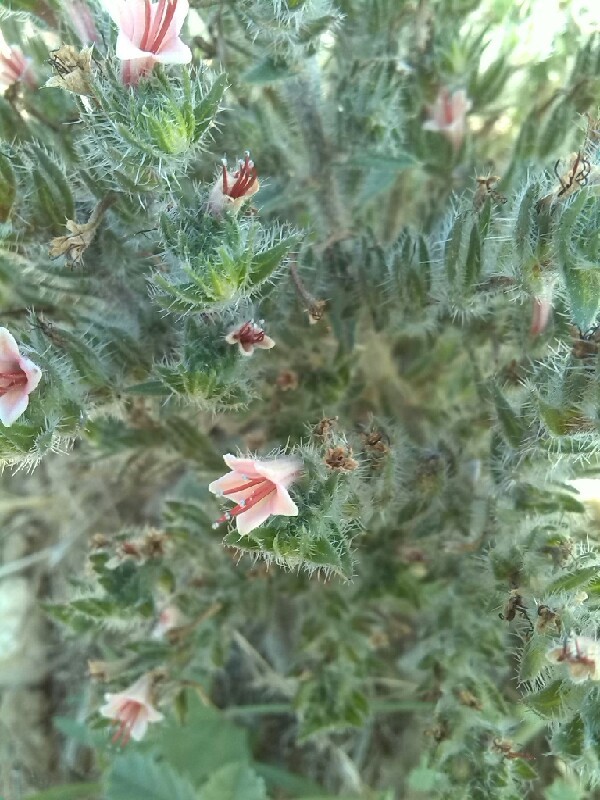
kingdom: Plantae
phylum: Tracheophyta
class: Magnoliopsida
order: Boraginales
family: Boraginaceae
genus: Echium
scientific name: Echium asperrimum
